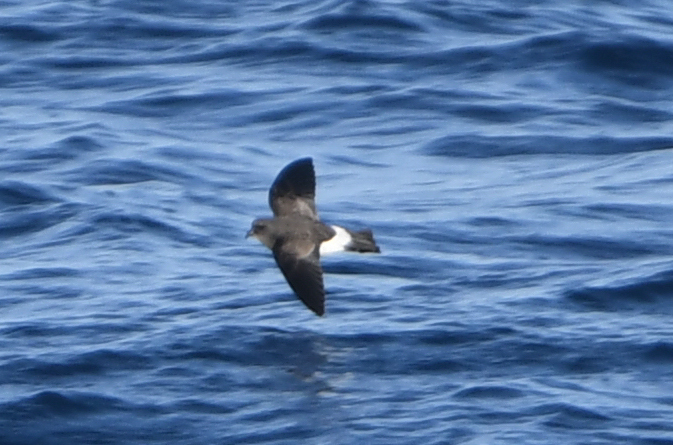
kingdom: Animalia
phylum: Chordata
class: Aves
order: Procellariiformes
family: Hydrobatidae
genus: Fregetta
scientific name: Fregetta tropica
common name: Black-bellied storm-petrel
